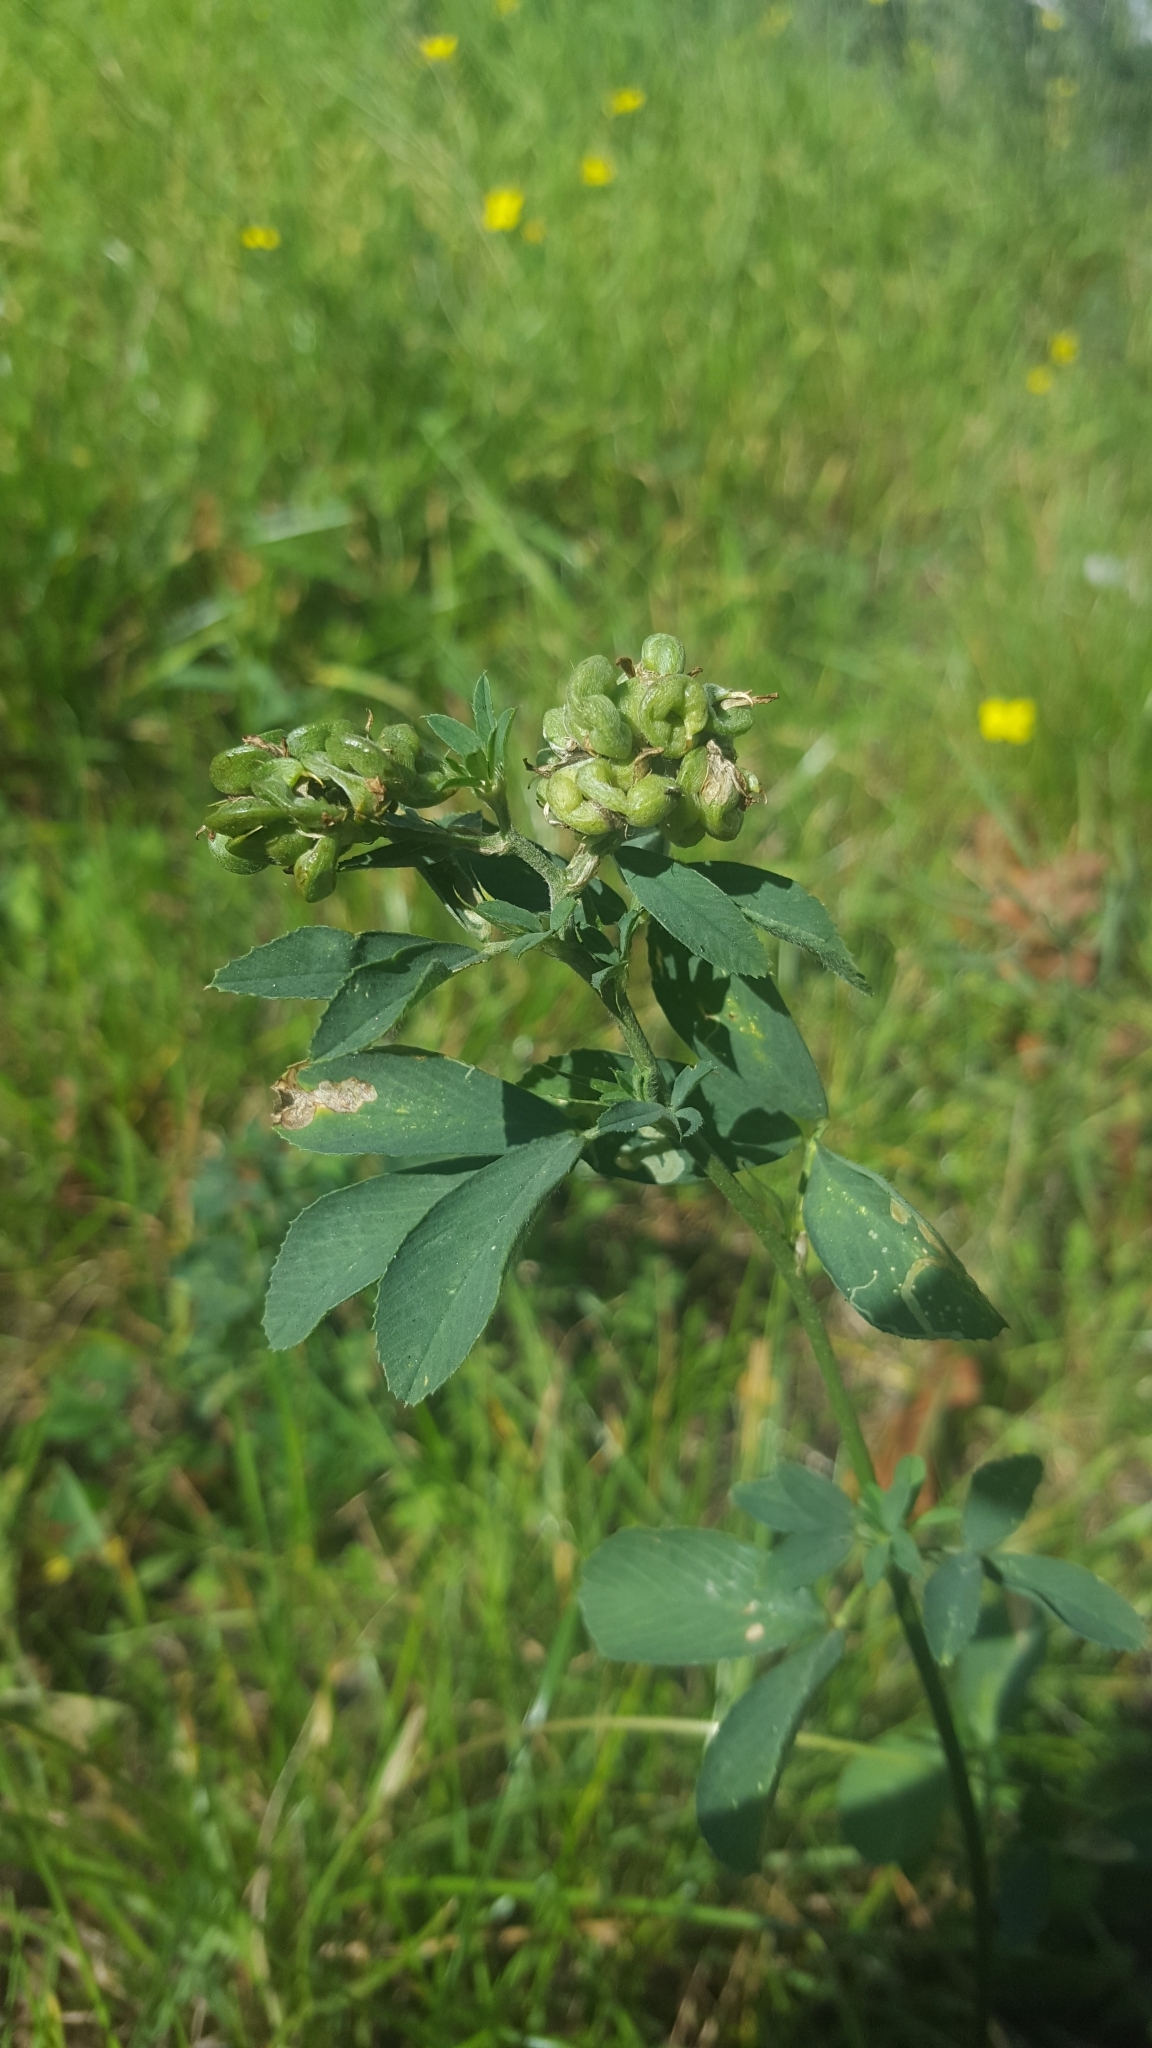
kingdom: Plantae
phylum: Tracheophyta
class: Magnoliopsida
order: Fabales
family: Fabaceae
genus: Medicago
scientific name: Medicago varia
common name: Sand lucerne
